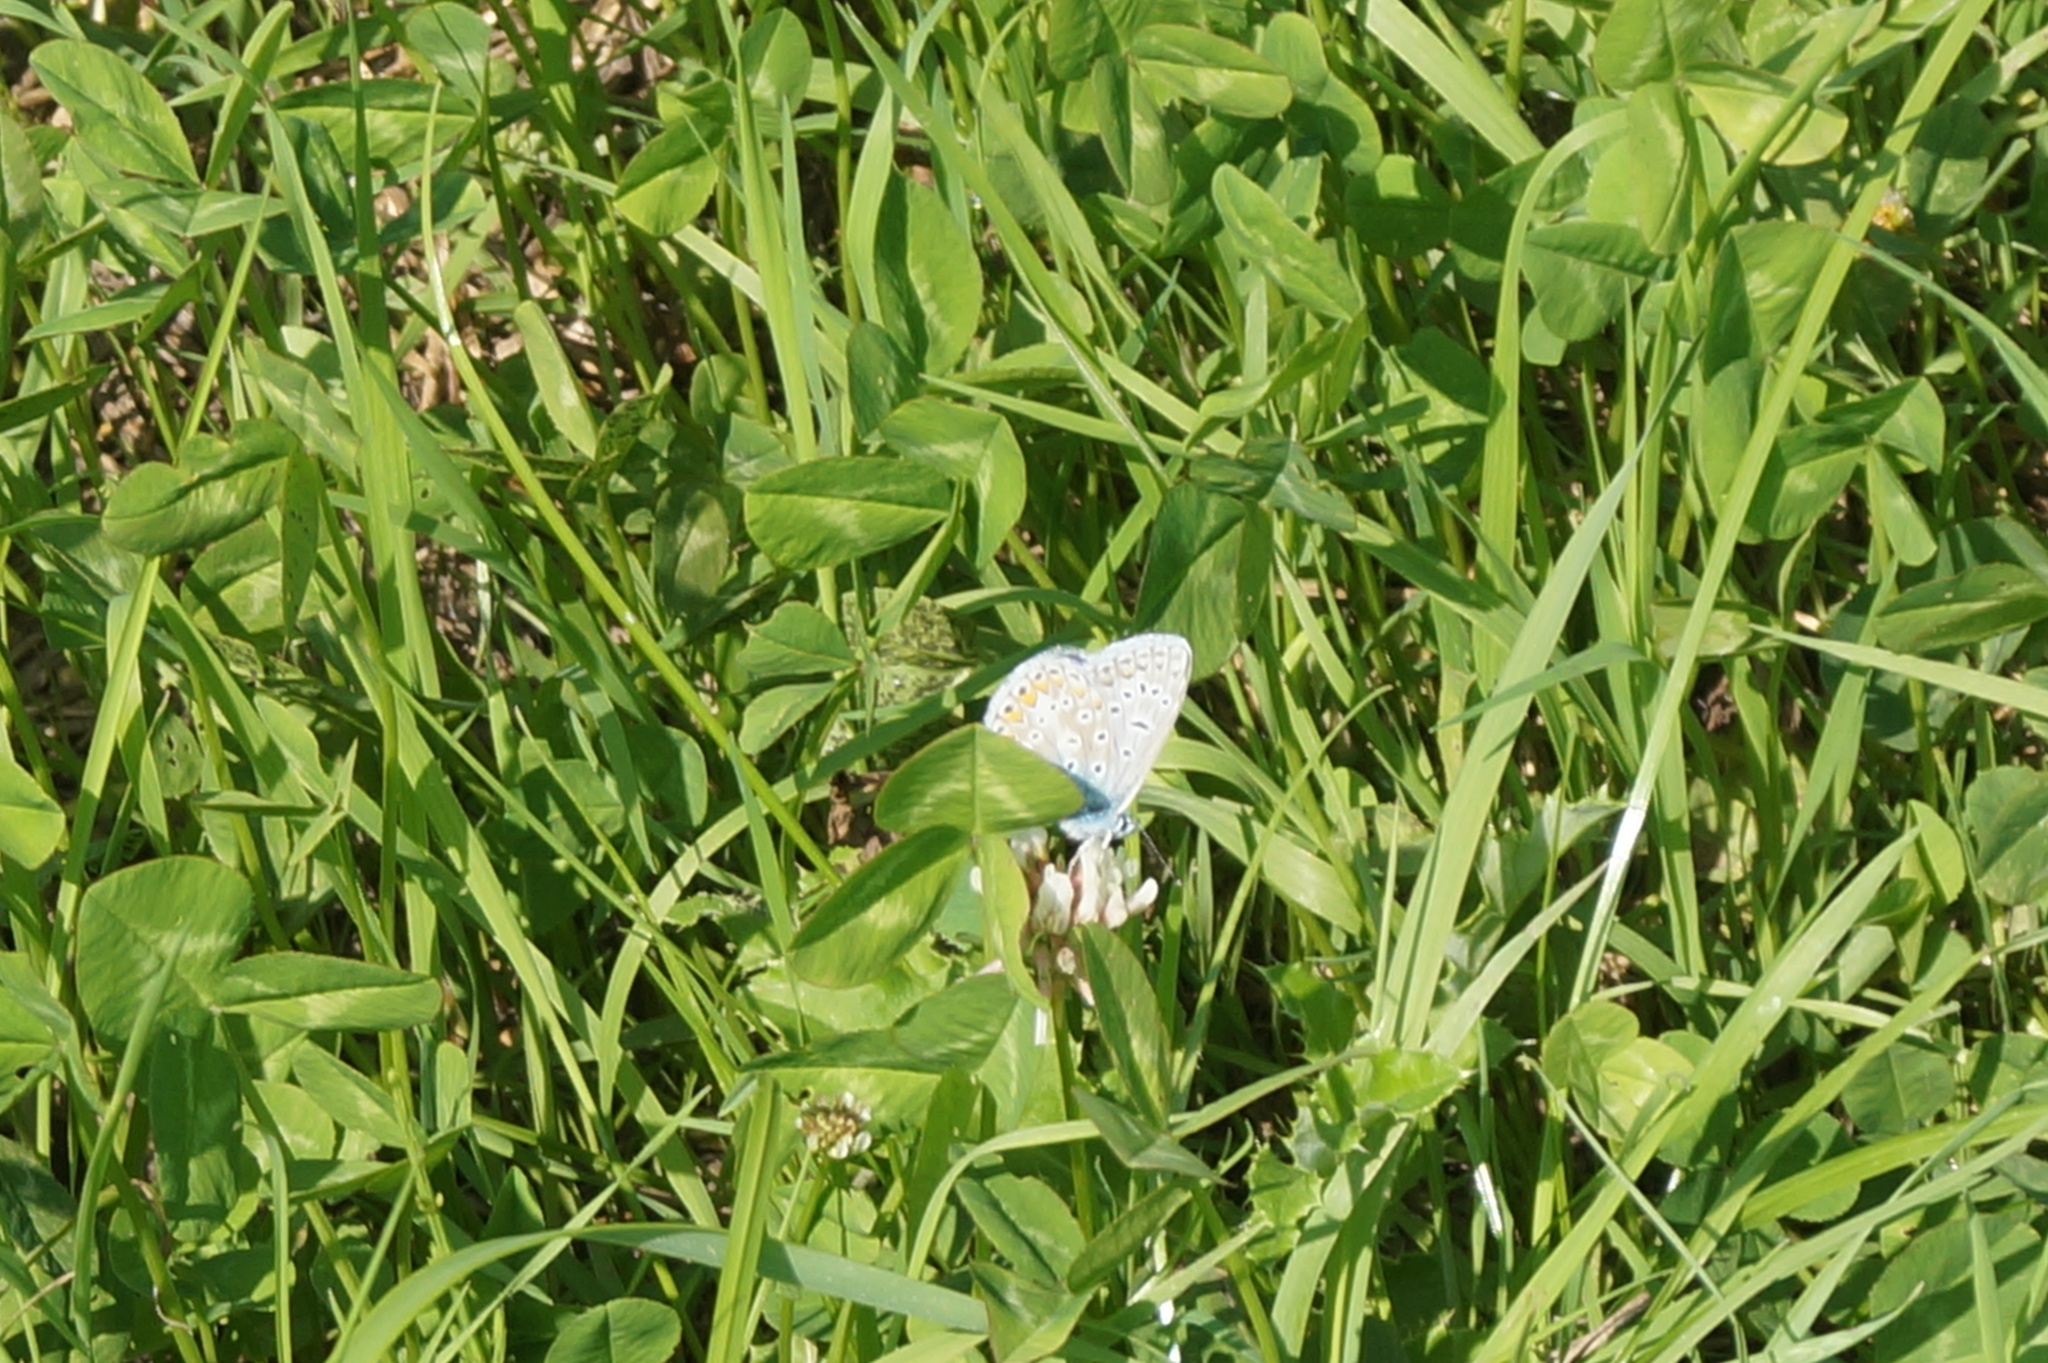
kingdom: Animalia
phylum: Arthropoda
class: Insecta
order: Lepidoptera
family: Lycaenidae
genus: Polyommatus
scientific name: Polyommatus icarus
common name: Common blue
